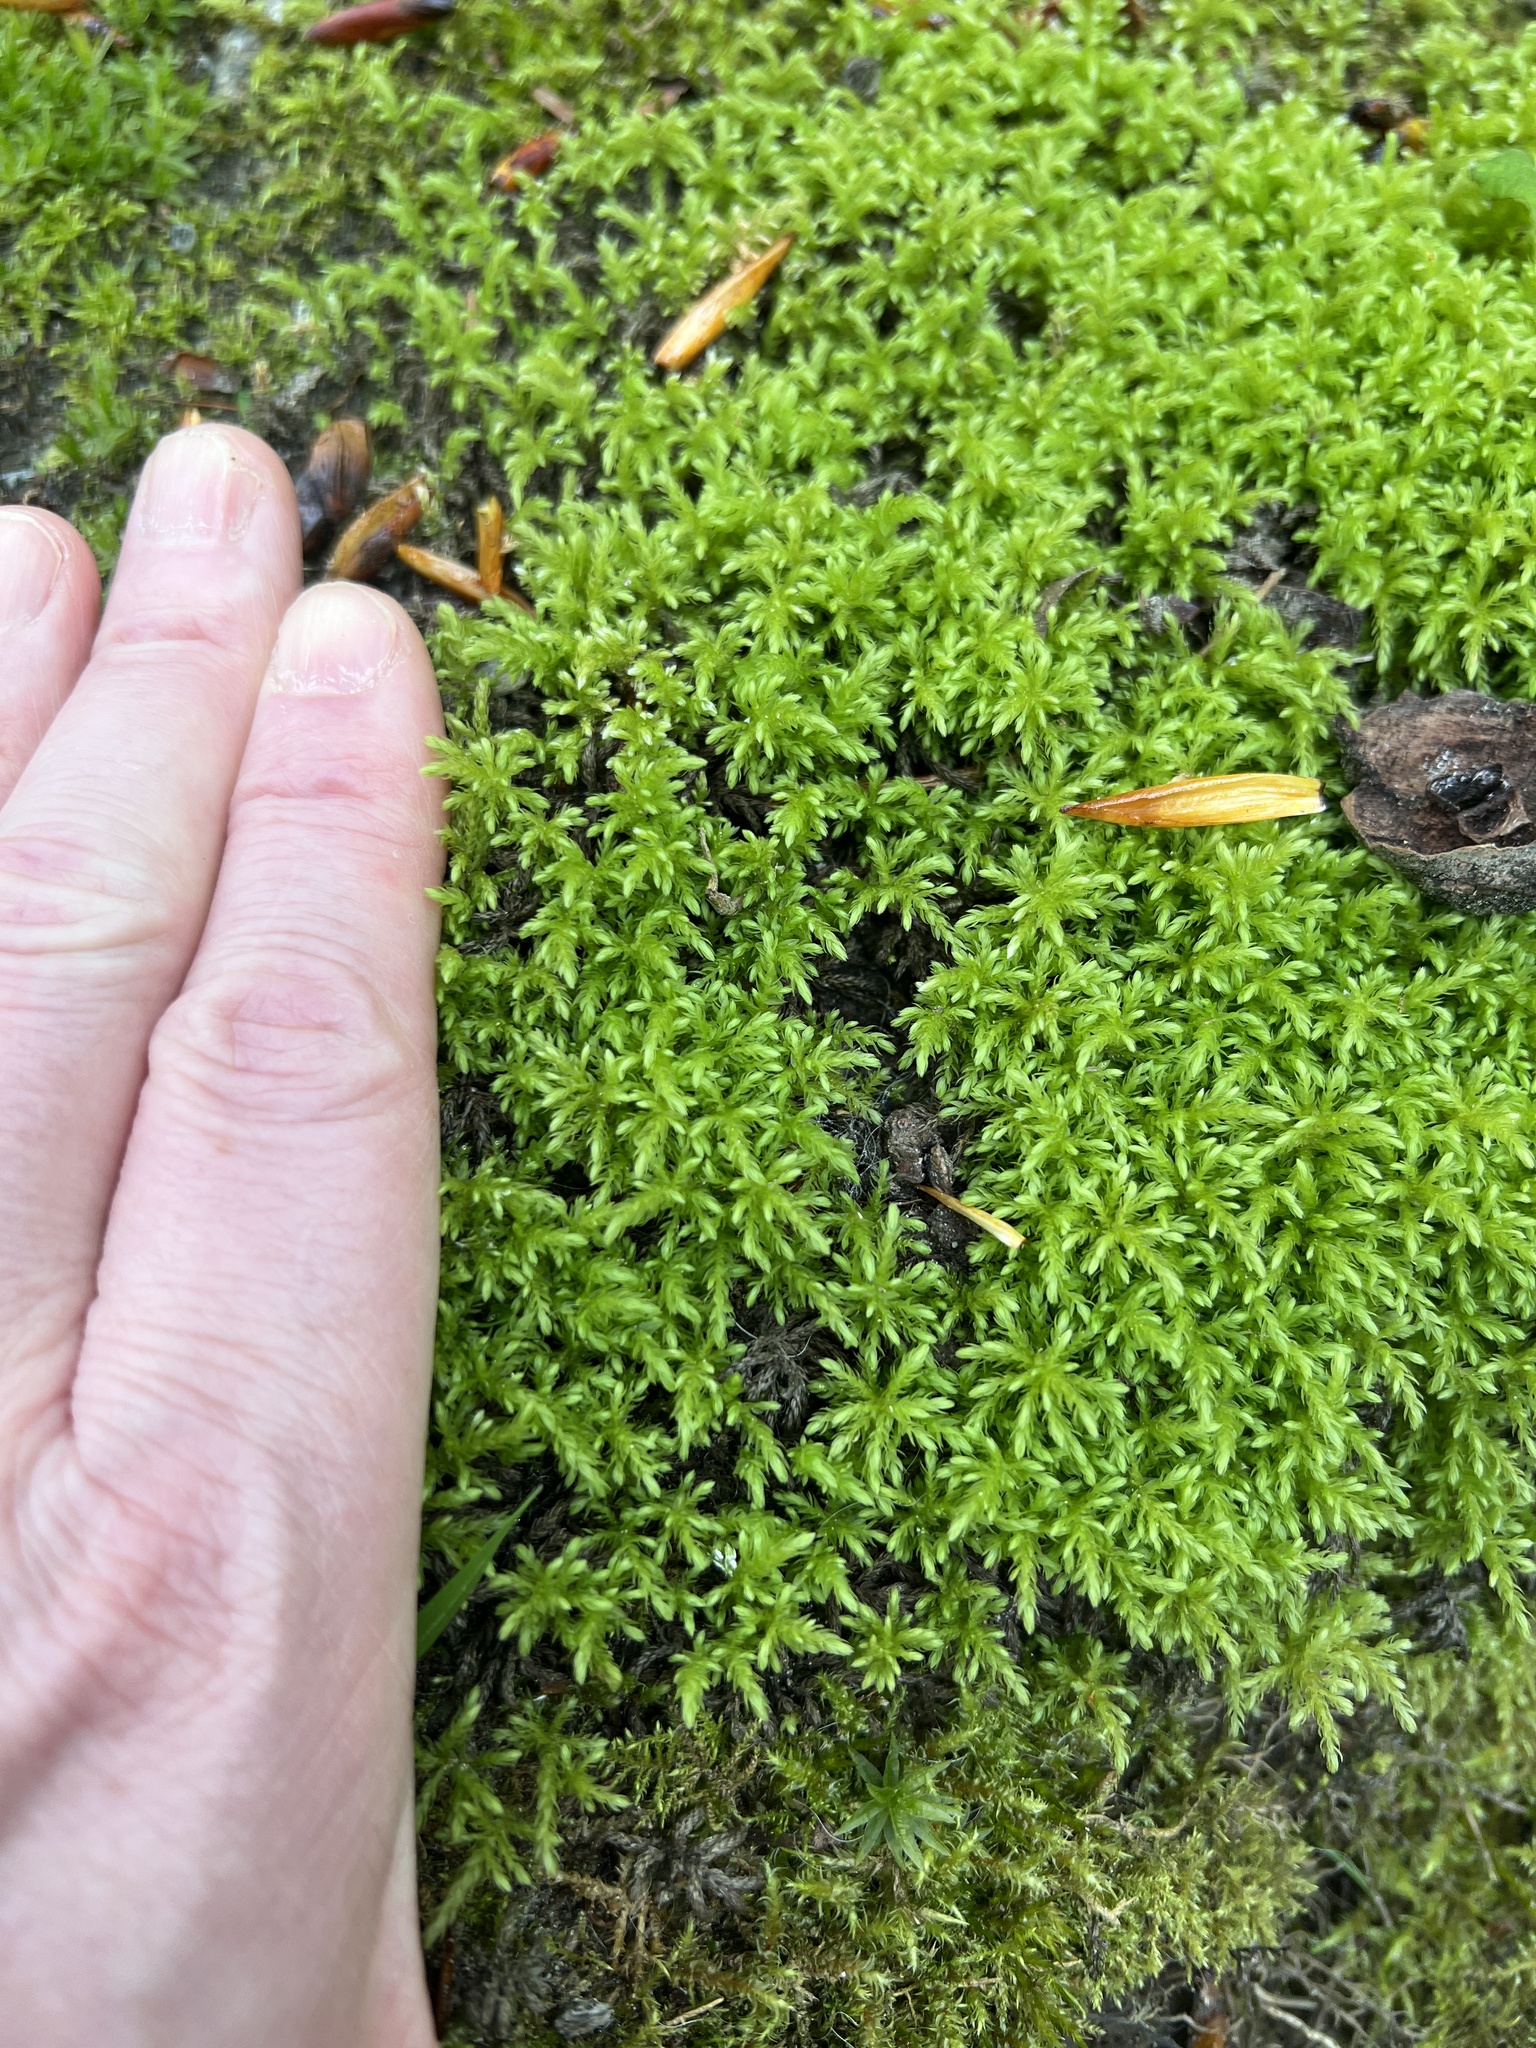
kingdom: Plantae
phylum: Bryophyta
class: Bryopsida
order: Bryales
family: Mniaceae
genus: Leucolepis
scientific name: Leucolepis acanthoneura
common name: Leucolepis umbrella moss
